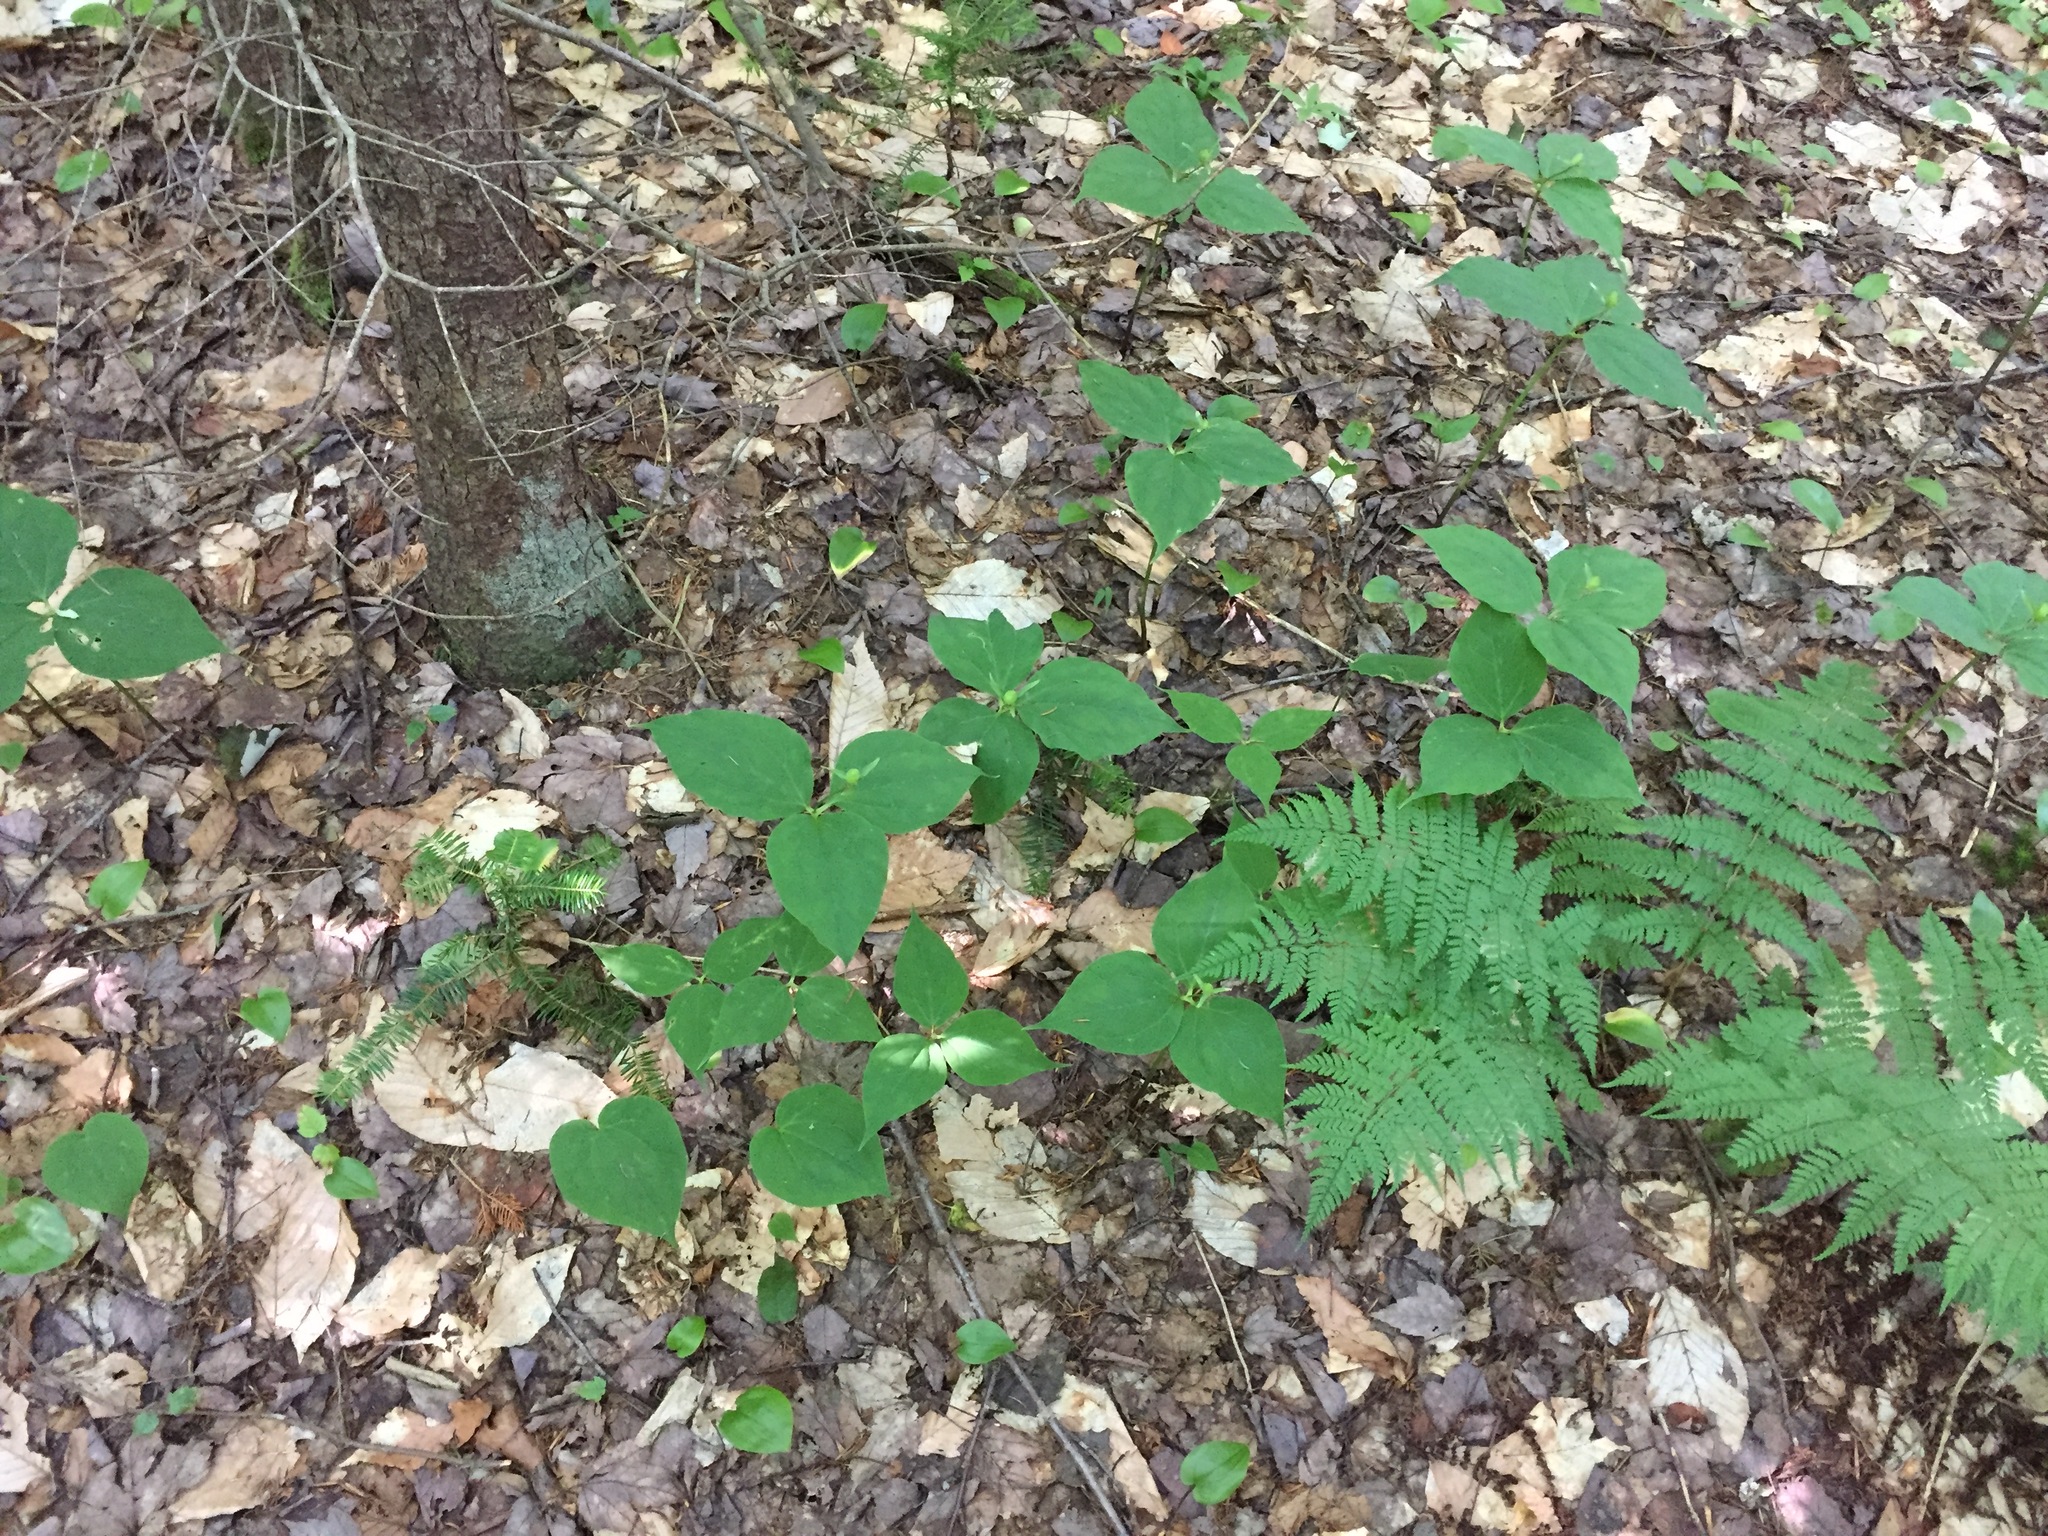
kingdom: Plantae
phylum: Tracheophyta
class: Liliopsida
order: Liliales
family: Melanthiaceae
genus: Trillium
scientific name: Trillium undulatum
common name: Paint trillium
